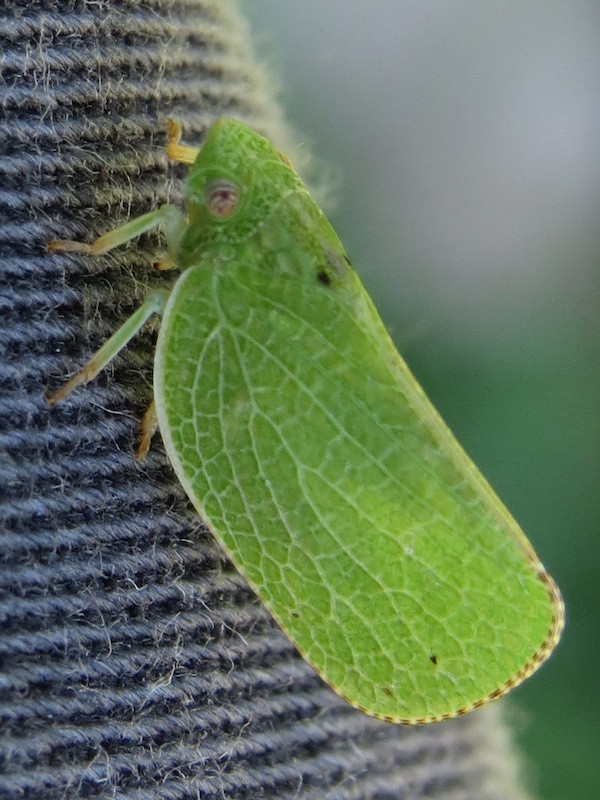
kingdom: Animalia
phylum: Arthropoda
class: Insecta
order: Hemiptera
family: Acanaloniidae
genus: Acanalonia
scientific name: Acanalonia conica
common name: Green cone-headed planthopper
